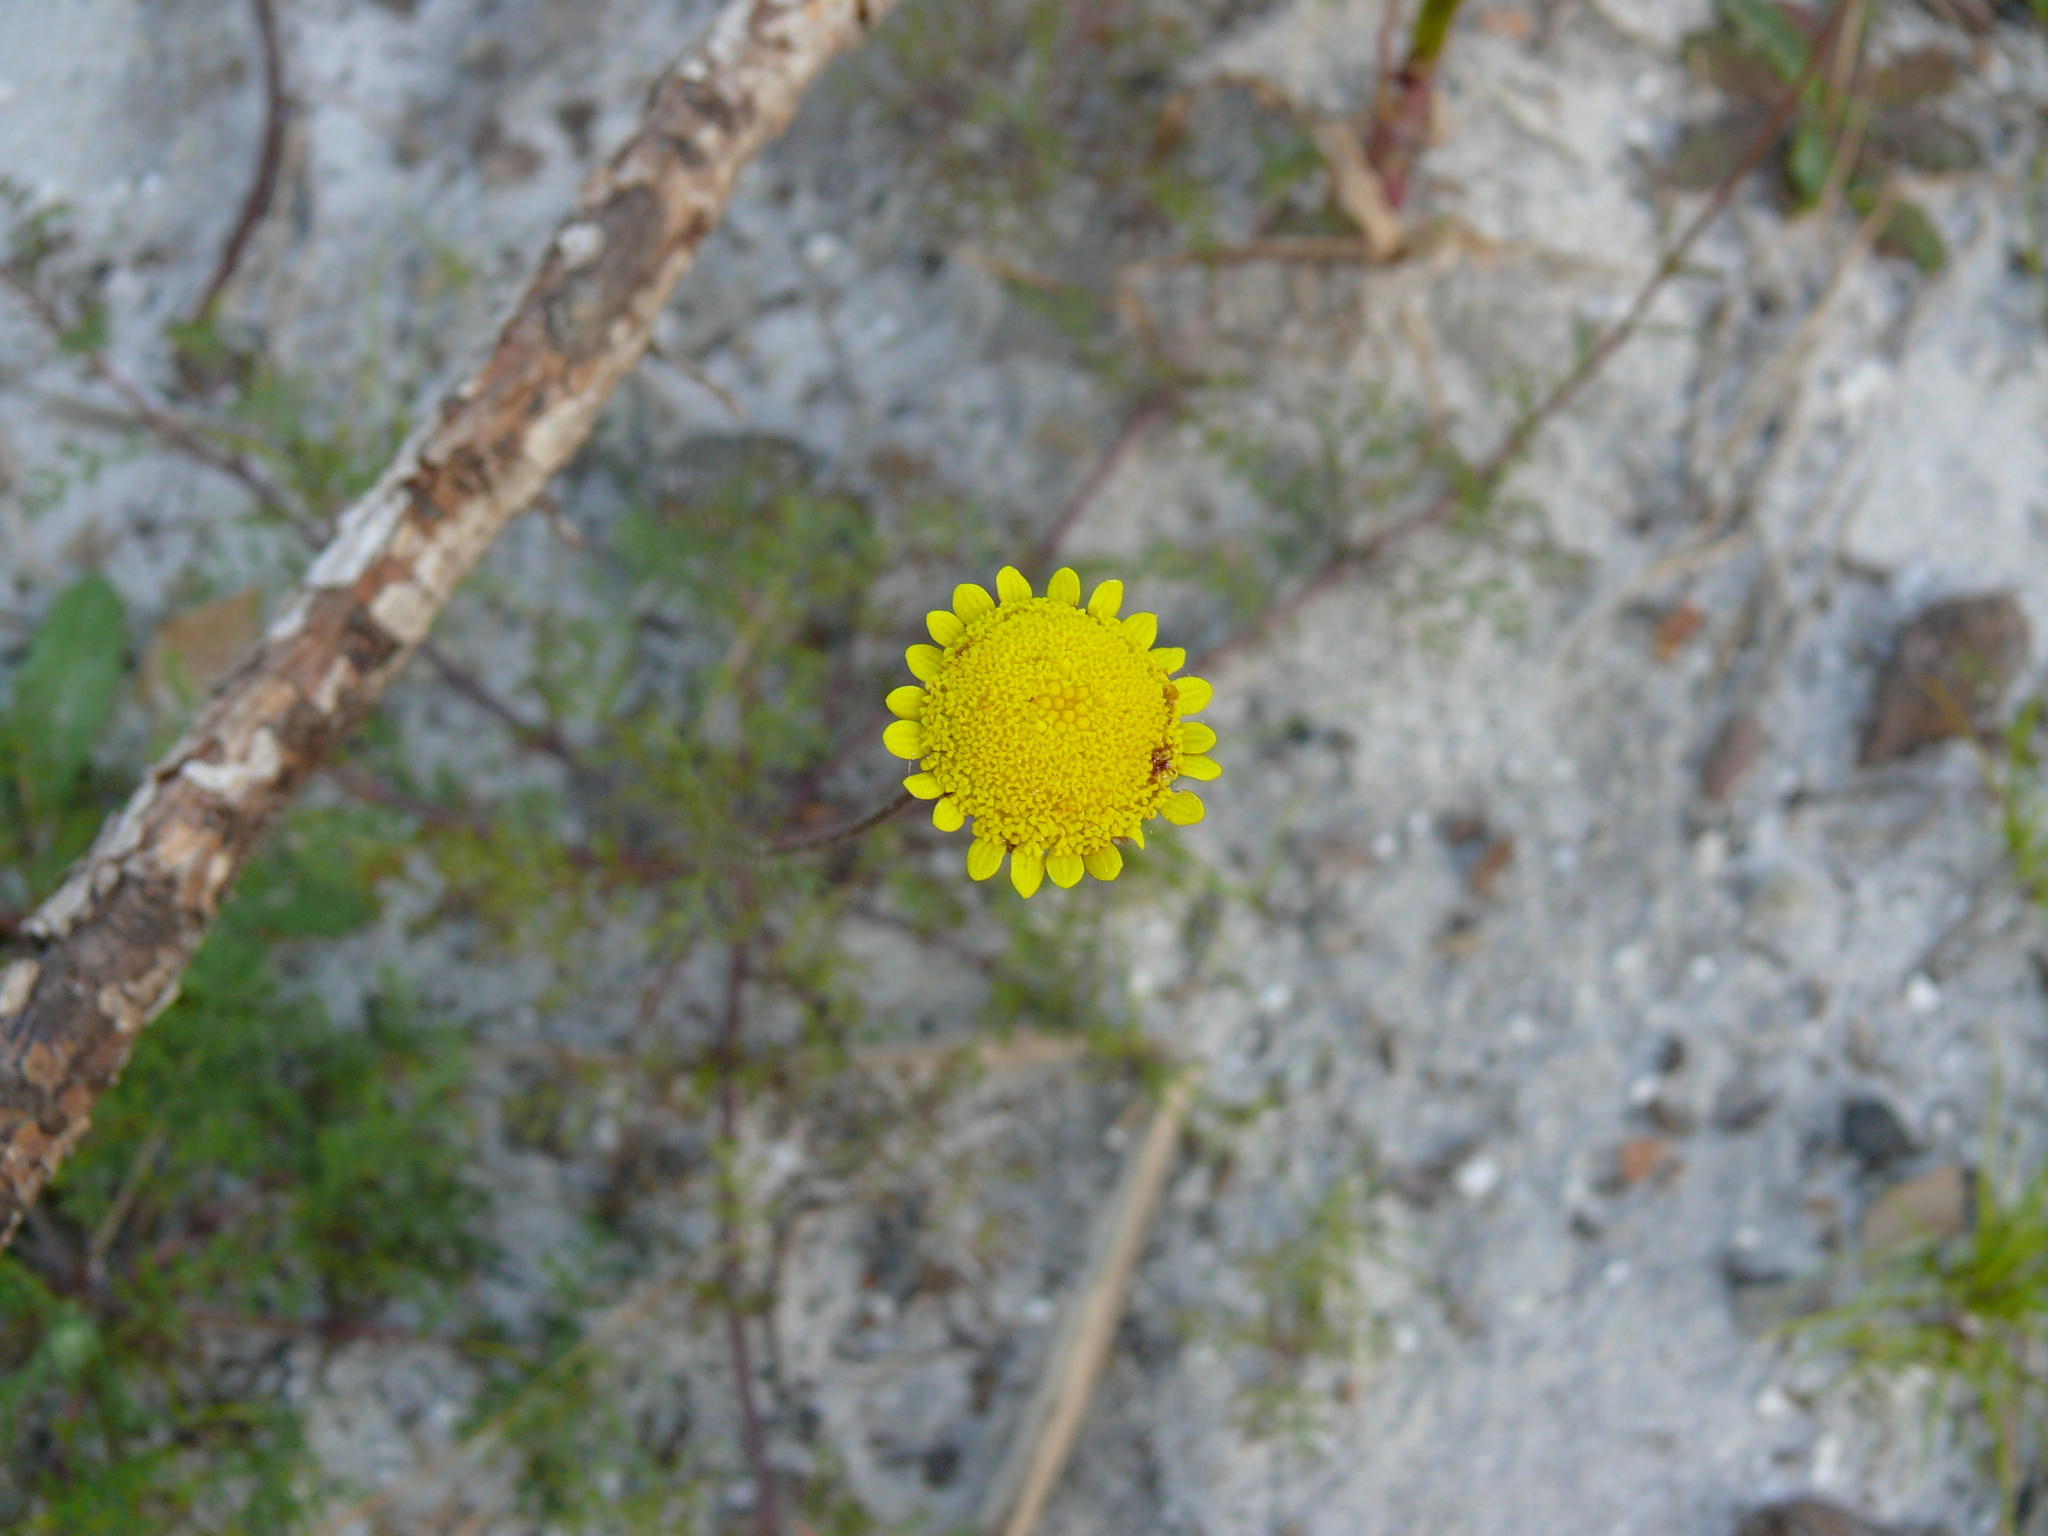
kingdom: Plantae
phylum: Tracheophyta
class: Magnoliopsida
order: Asterales
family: Asteraceae
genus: Cotula
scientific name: Cotula pruinosa
